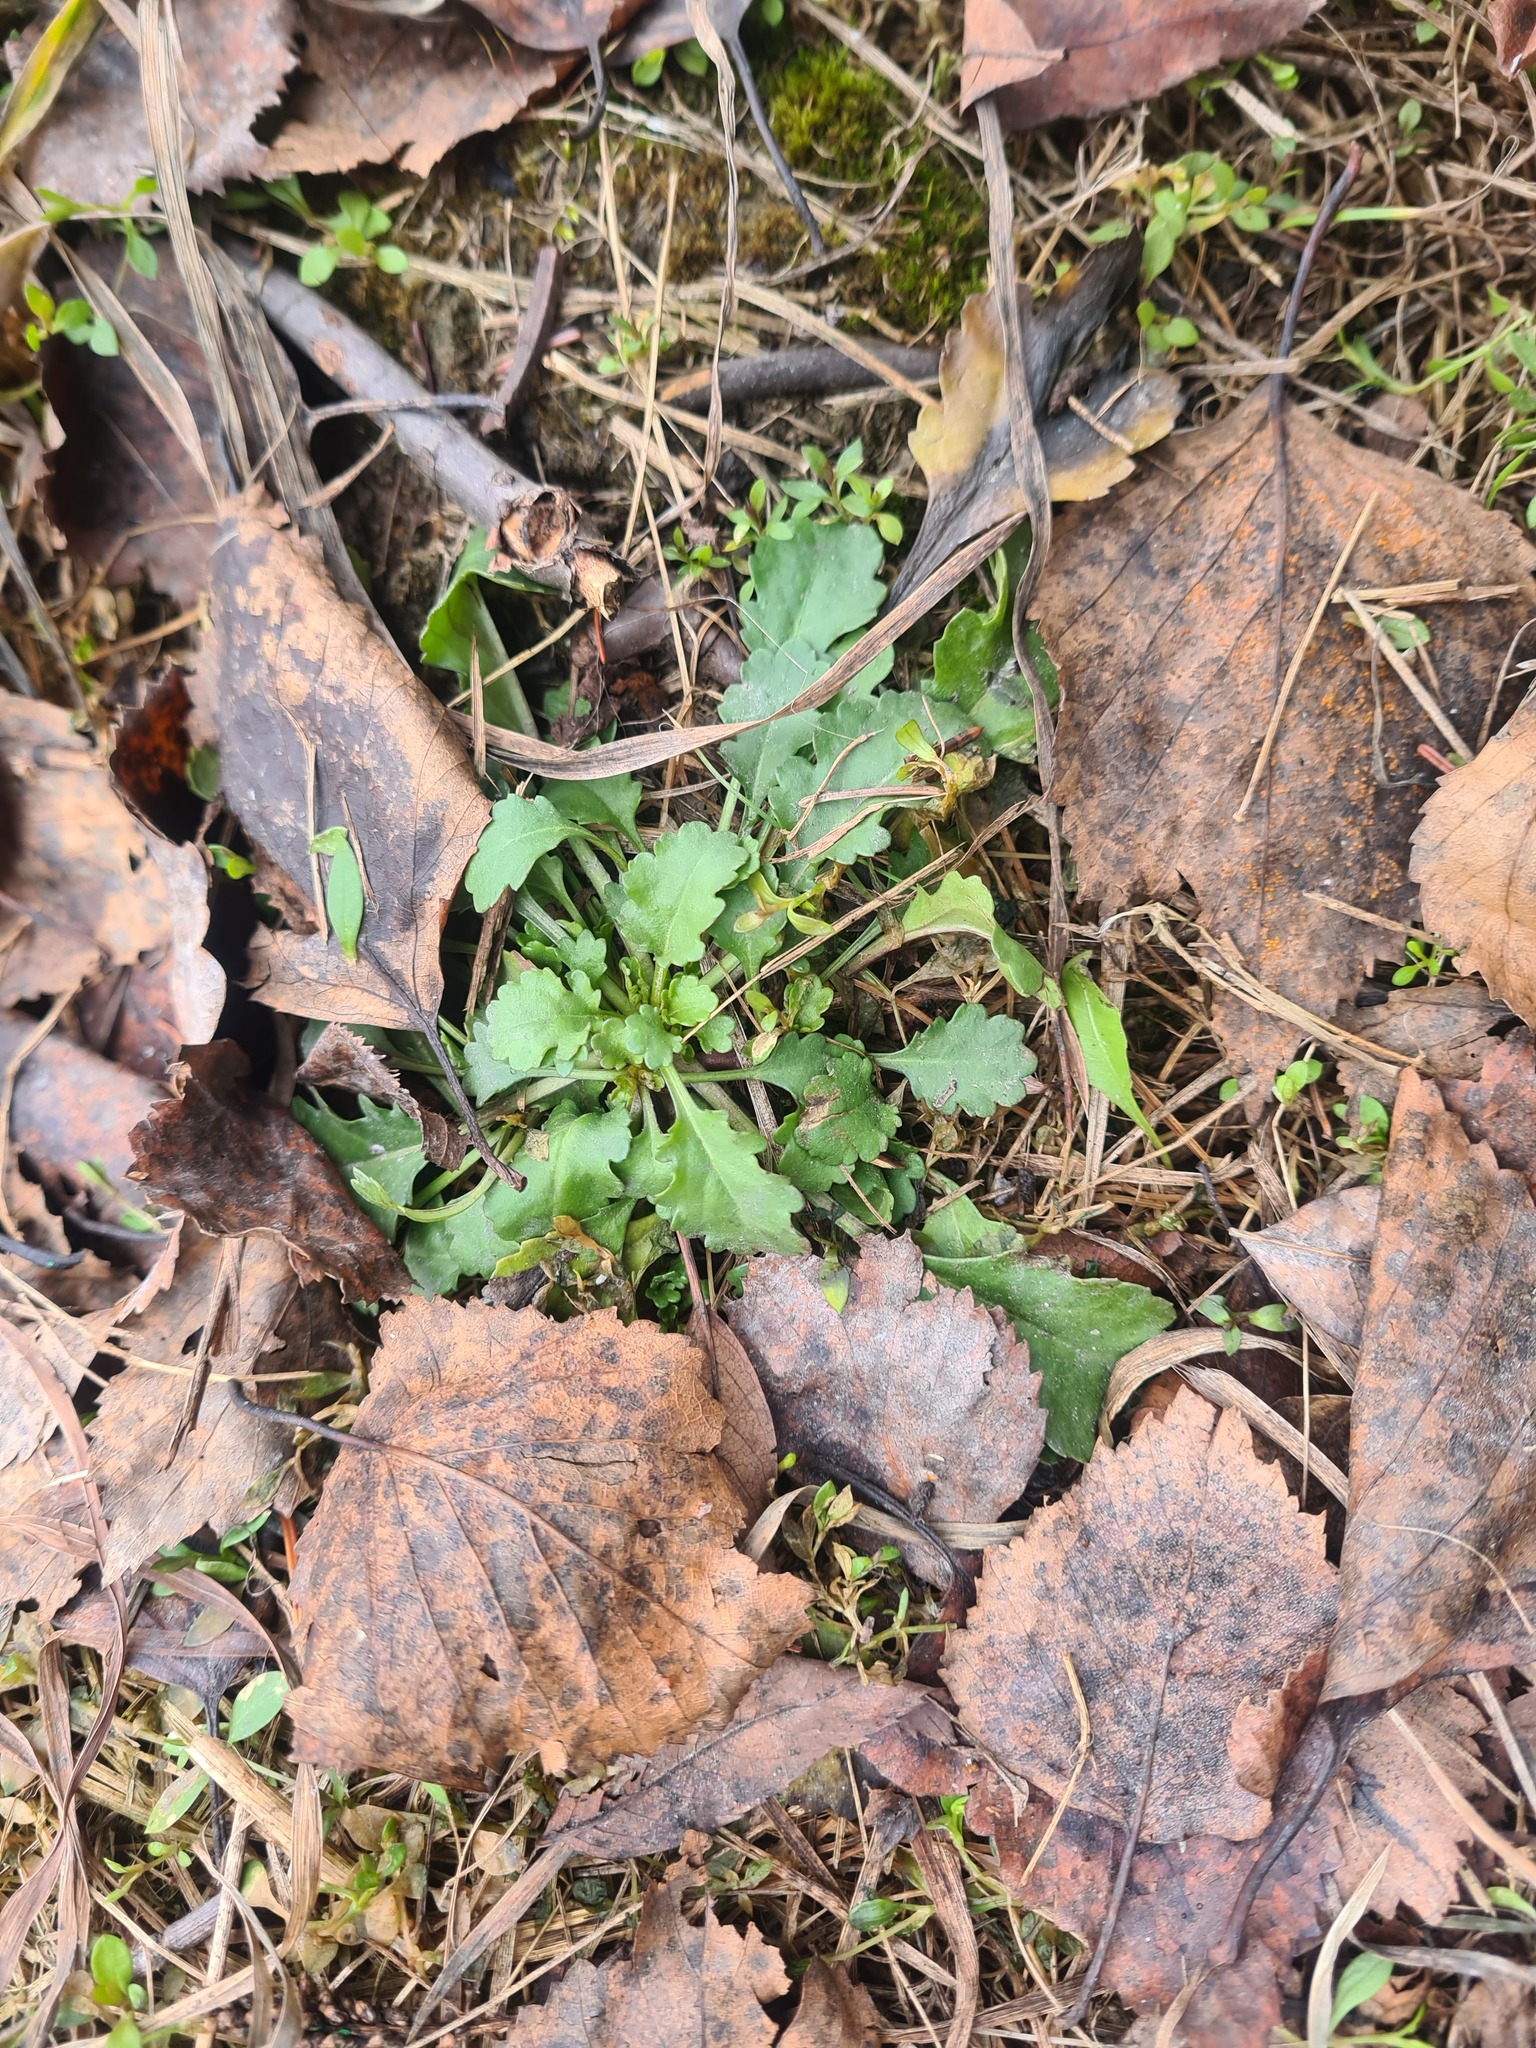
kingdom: Plantae
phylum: Tracheophyta
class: Magnoliopsida
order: Asterales
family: Asteraceae
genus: Leucanthemum
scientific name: Leucanthemum ircutianum
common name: Daisy
